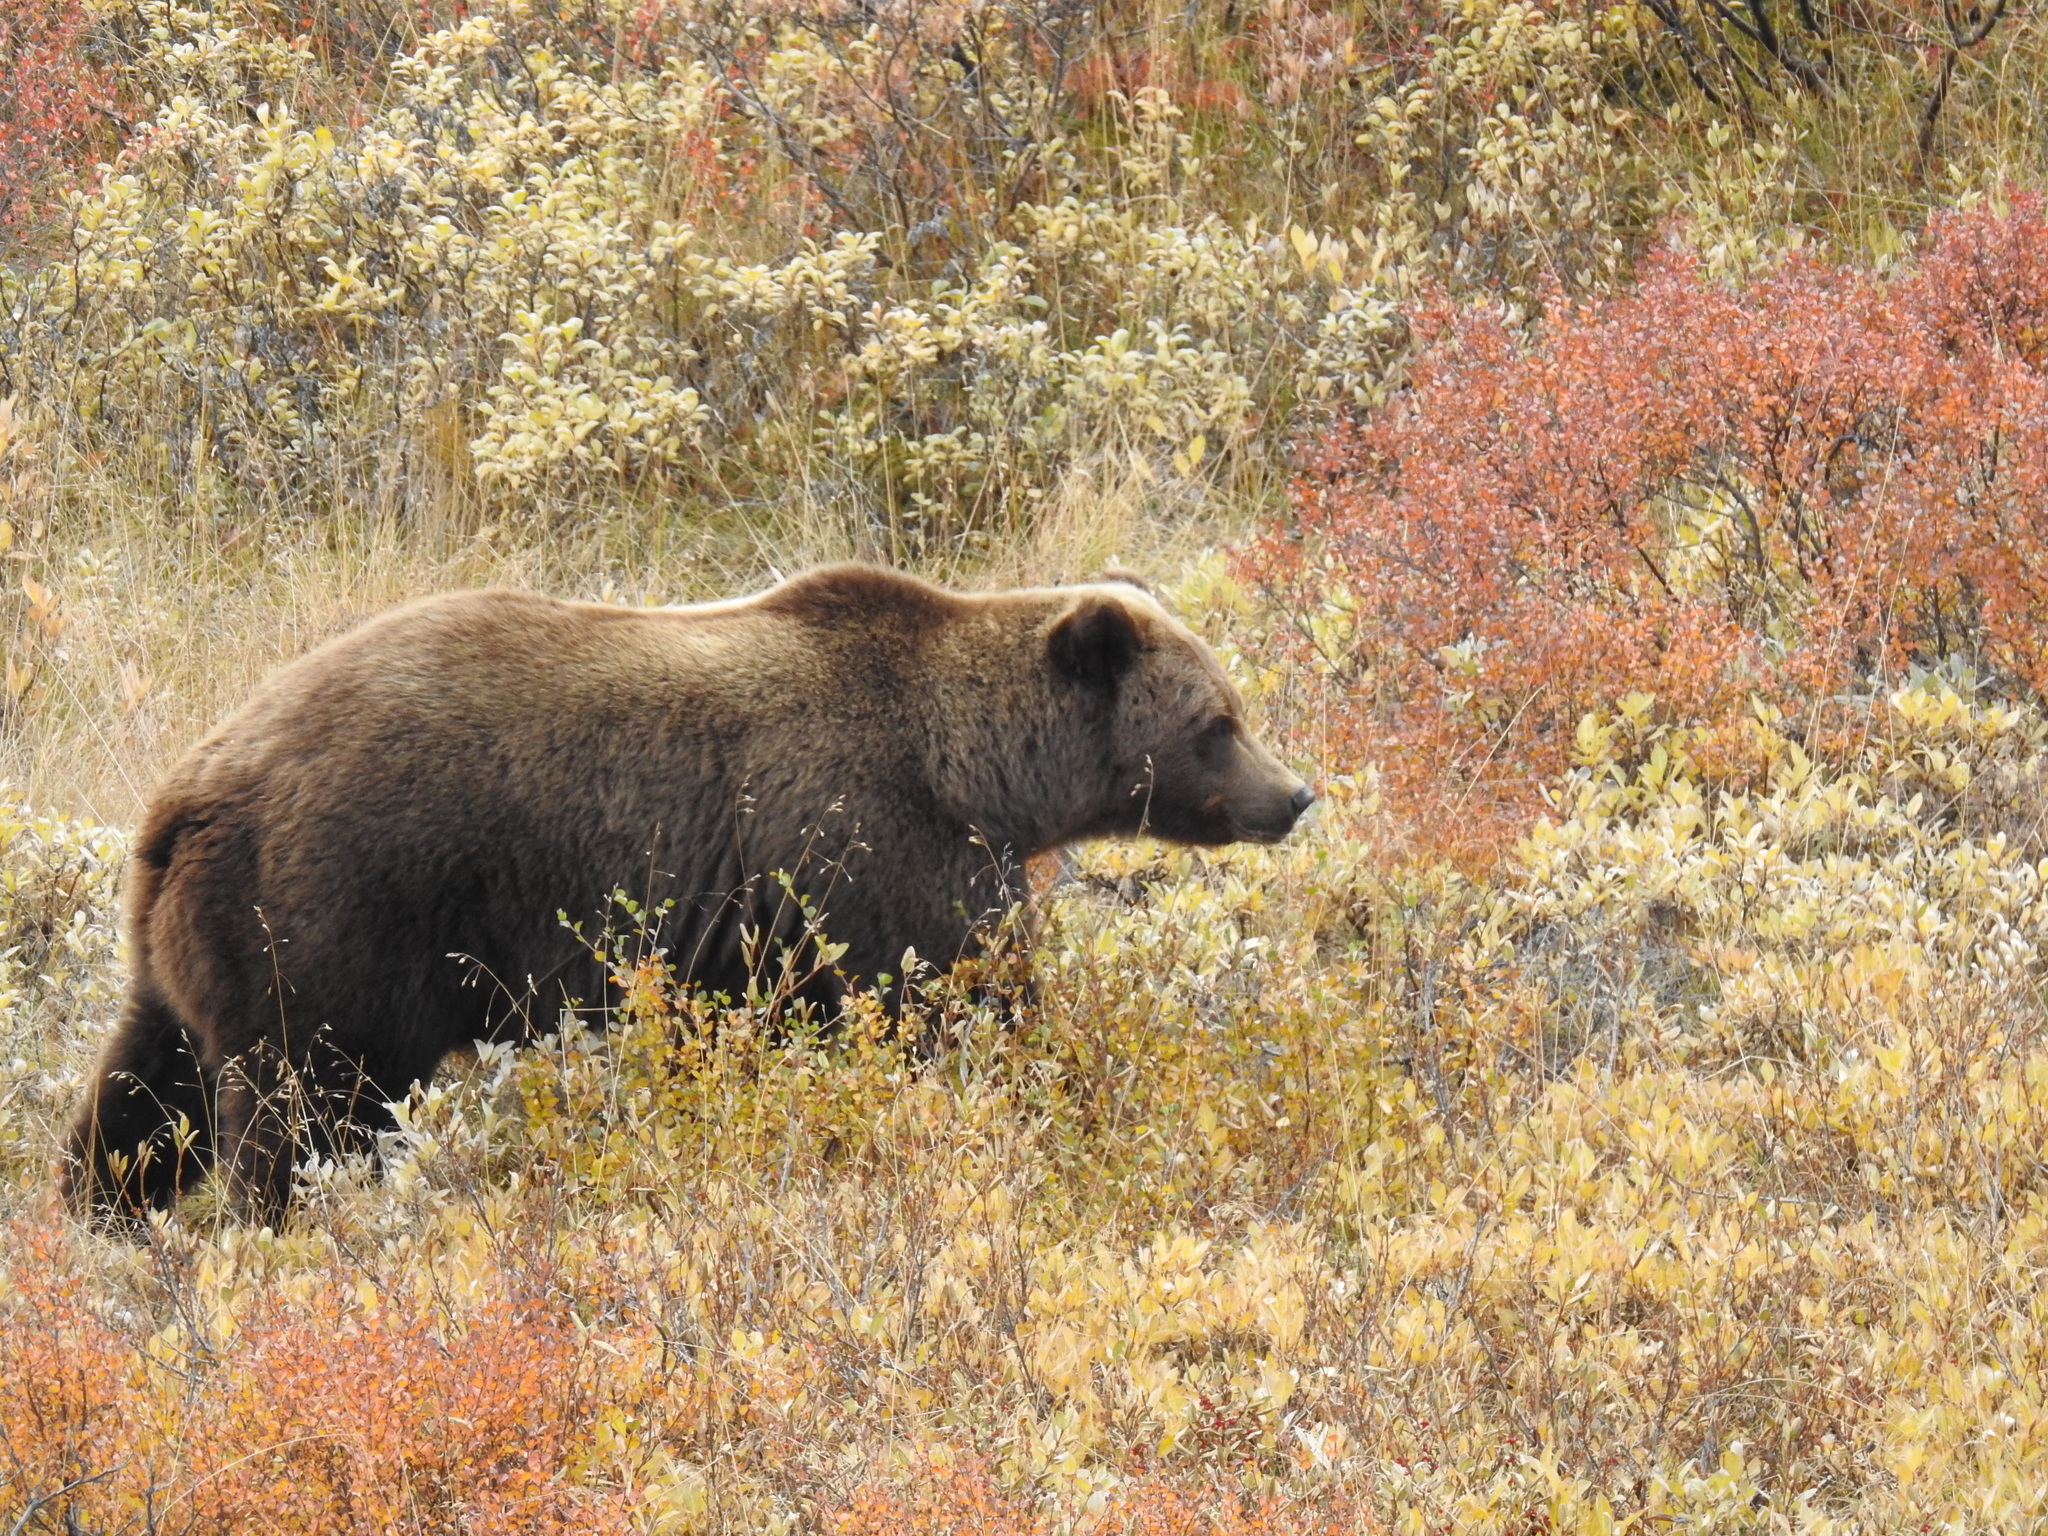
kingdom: Animalia
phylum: Chordata
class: Mammalia
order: Carnivora
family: Ursidae
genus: Ursus
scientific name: Ursus arctos
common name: Brown bear
